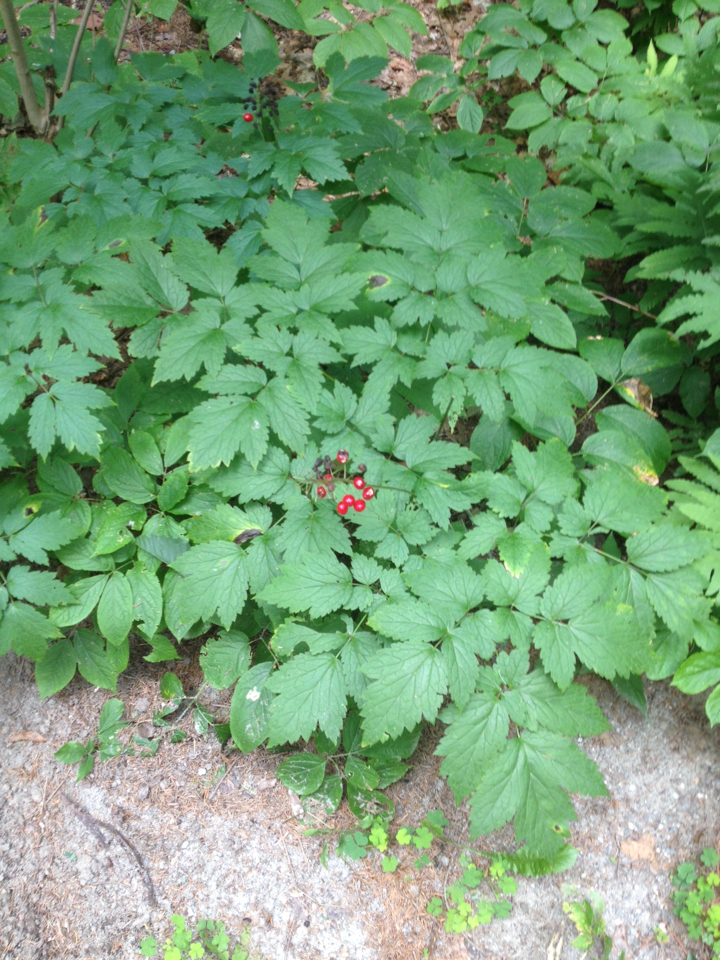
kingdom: Plantae
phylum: Tracheophyta
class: Magnoliopsida
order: Ranunculales
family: Ranunculaceae
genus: Actaea
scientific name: Actaea rubra
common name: Red baneberry
